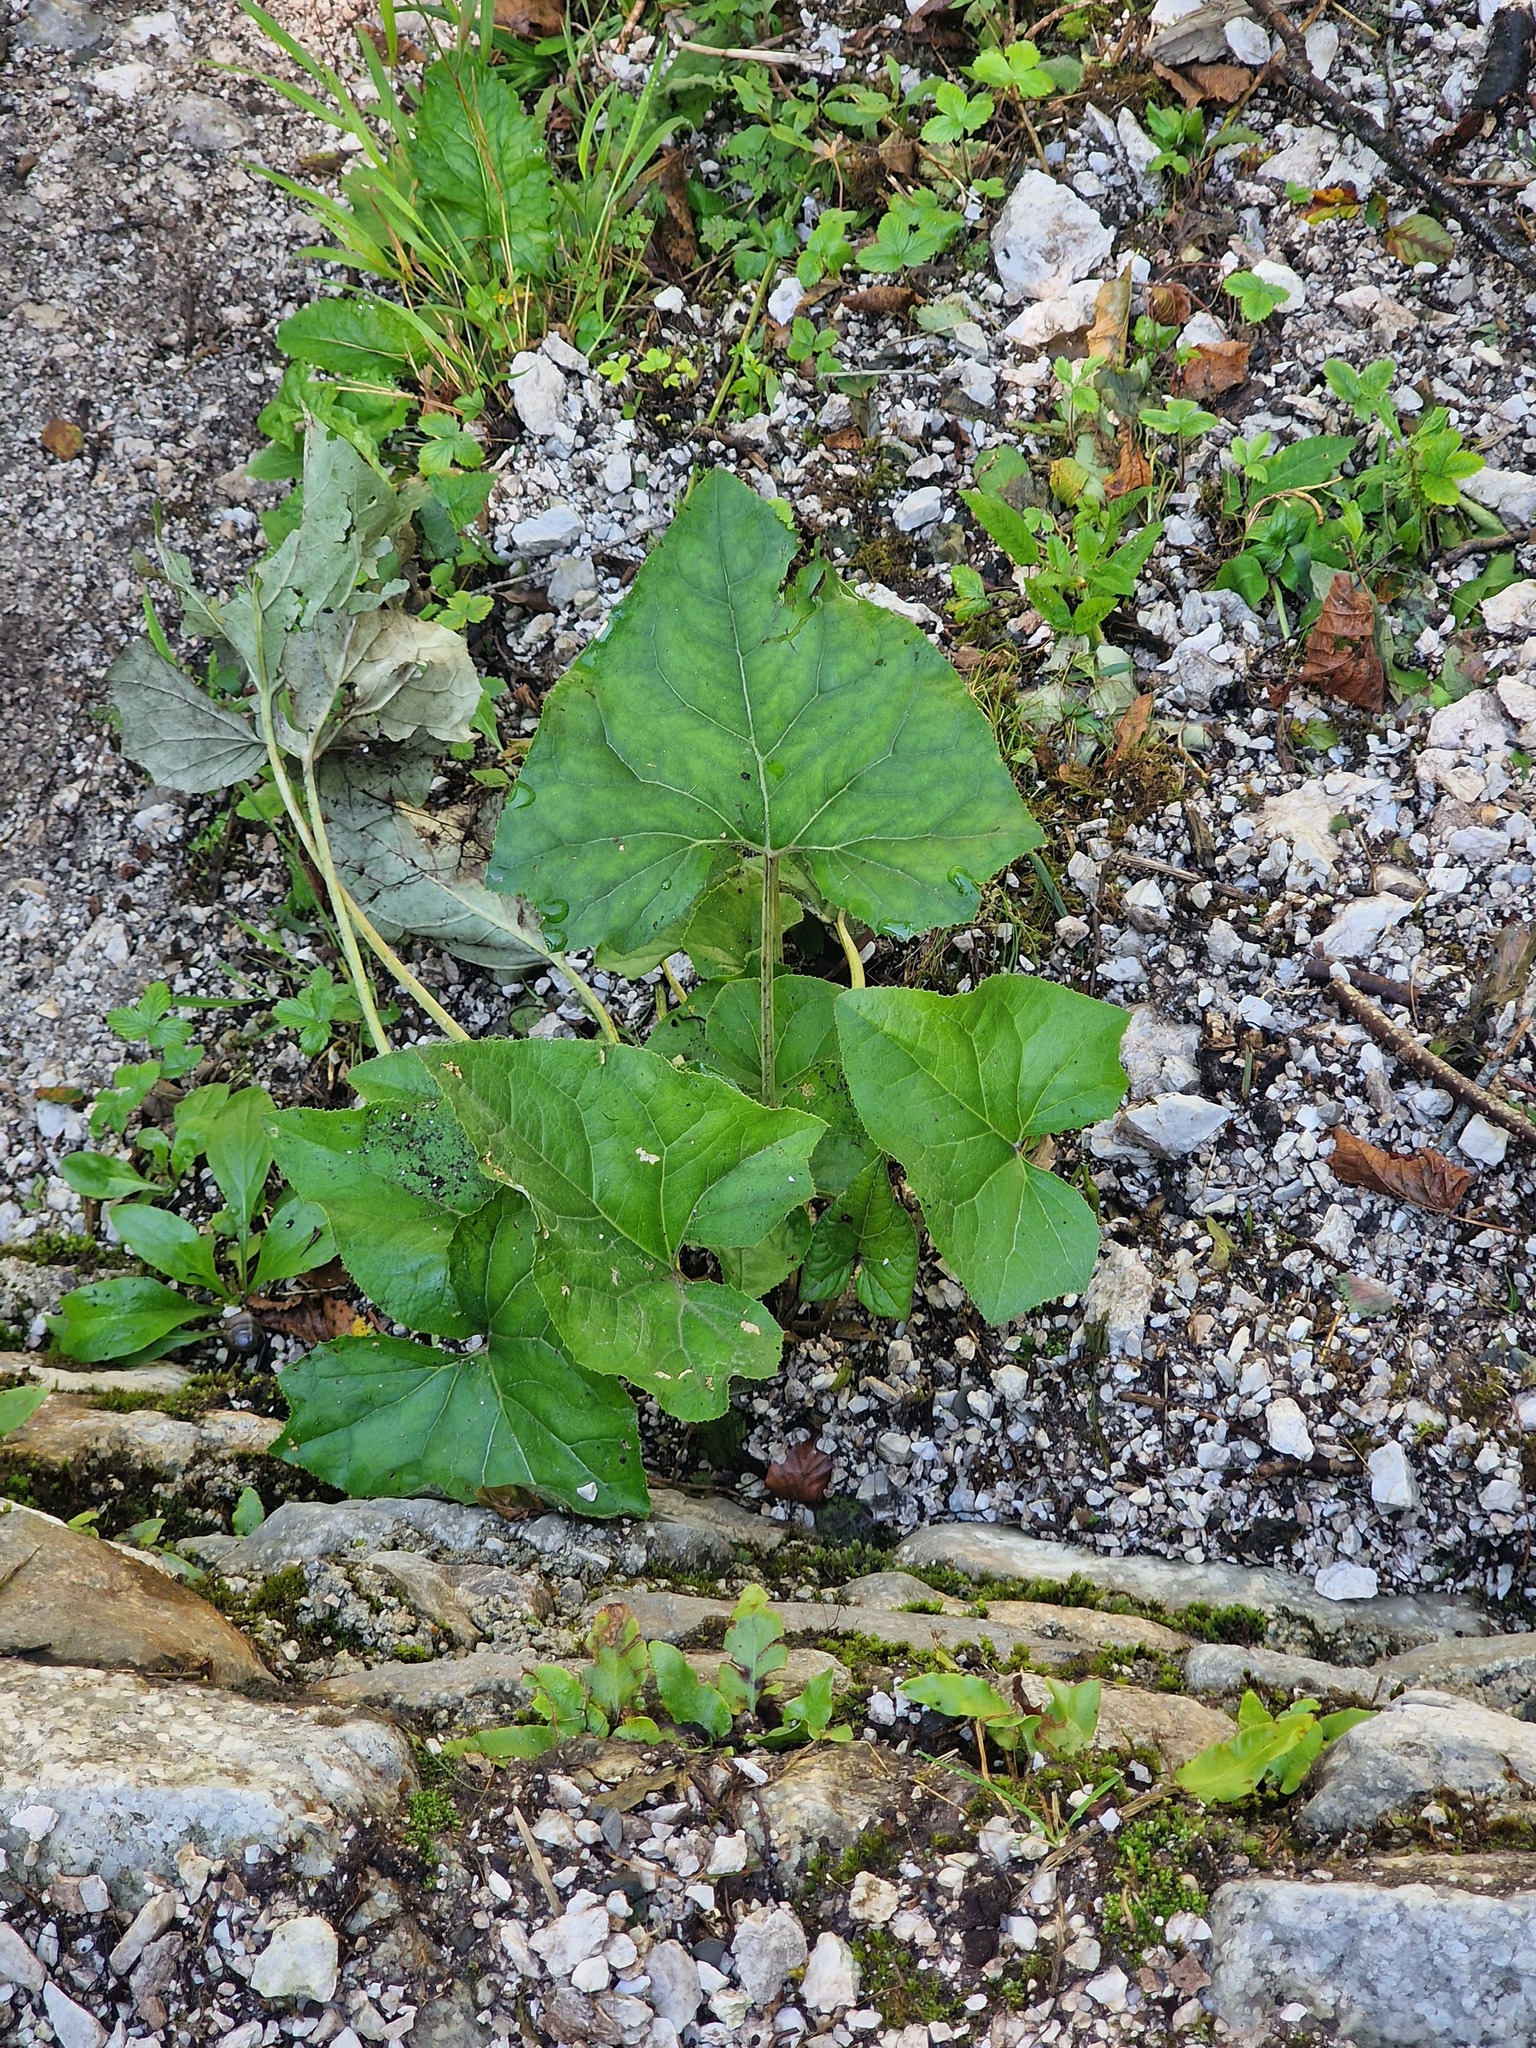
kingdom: Plantae
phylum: Tracheophyta
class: Magnoliopsida
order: Asterales
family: Asteraceae
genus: Petasites
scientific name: Petasites paradoxus
